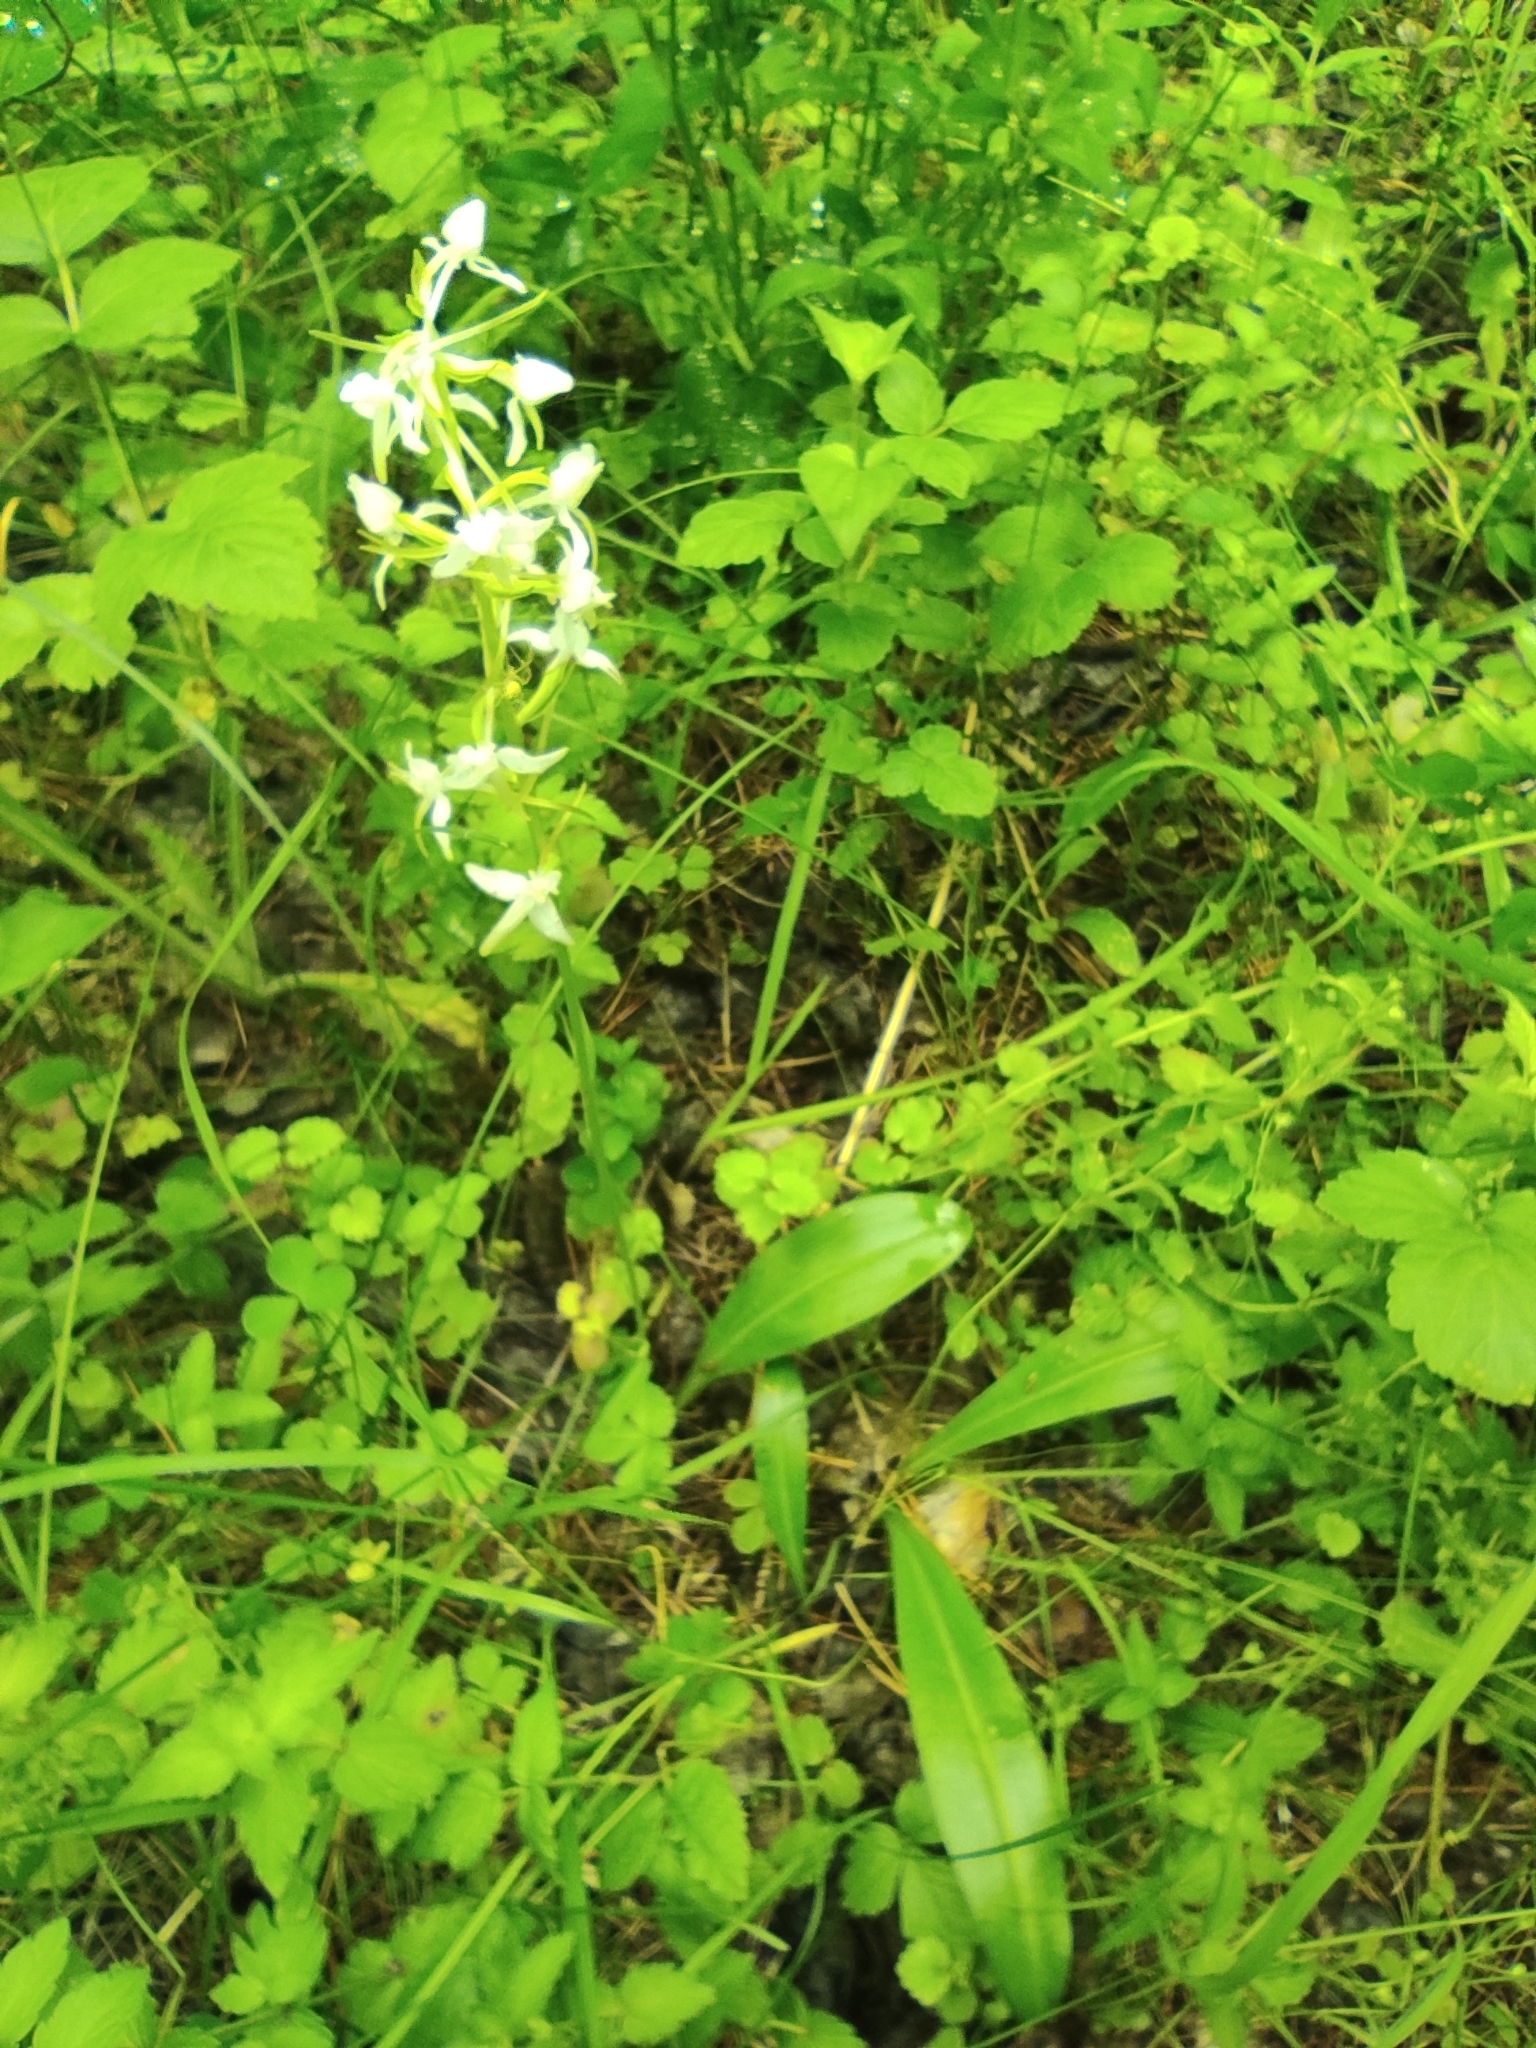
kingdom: Plantae
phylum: Tracheophyta
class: Liliopsida
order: Asparagales
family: Orchidaceae
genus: Platanthera
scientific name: Platanthera bifolia
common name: Lesser butterfly-orchid
